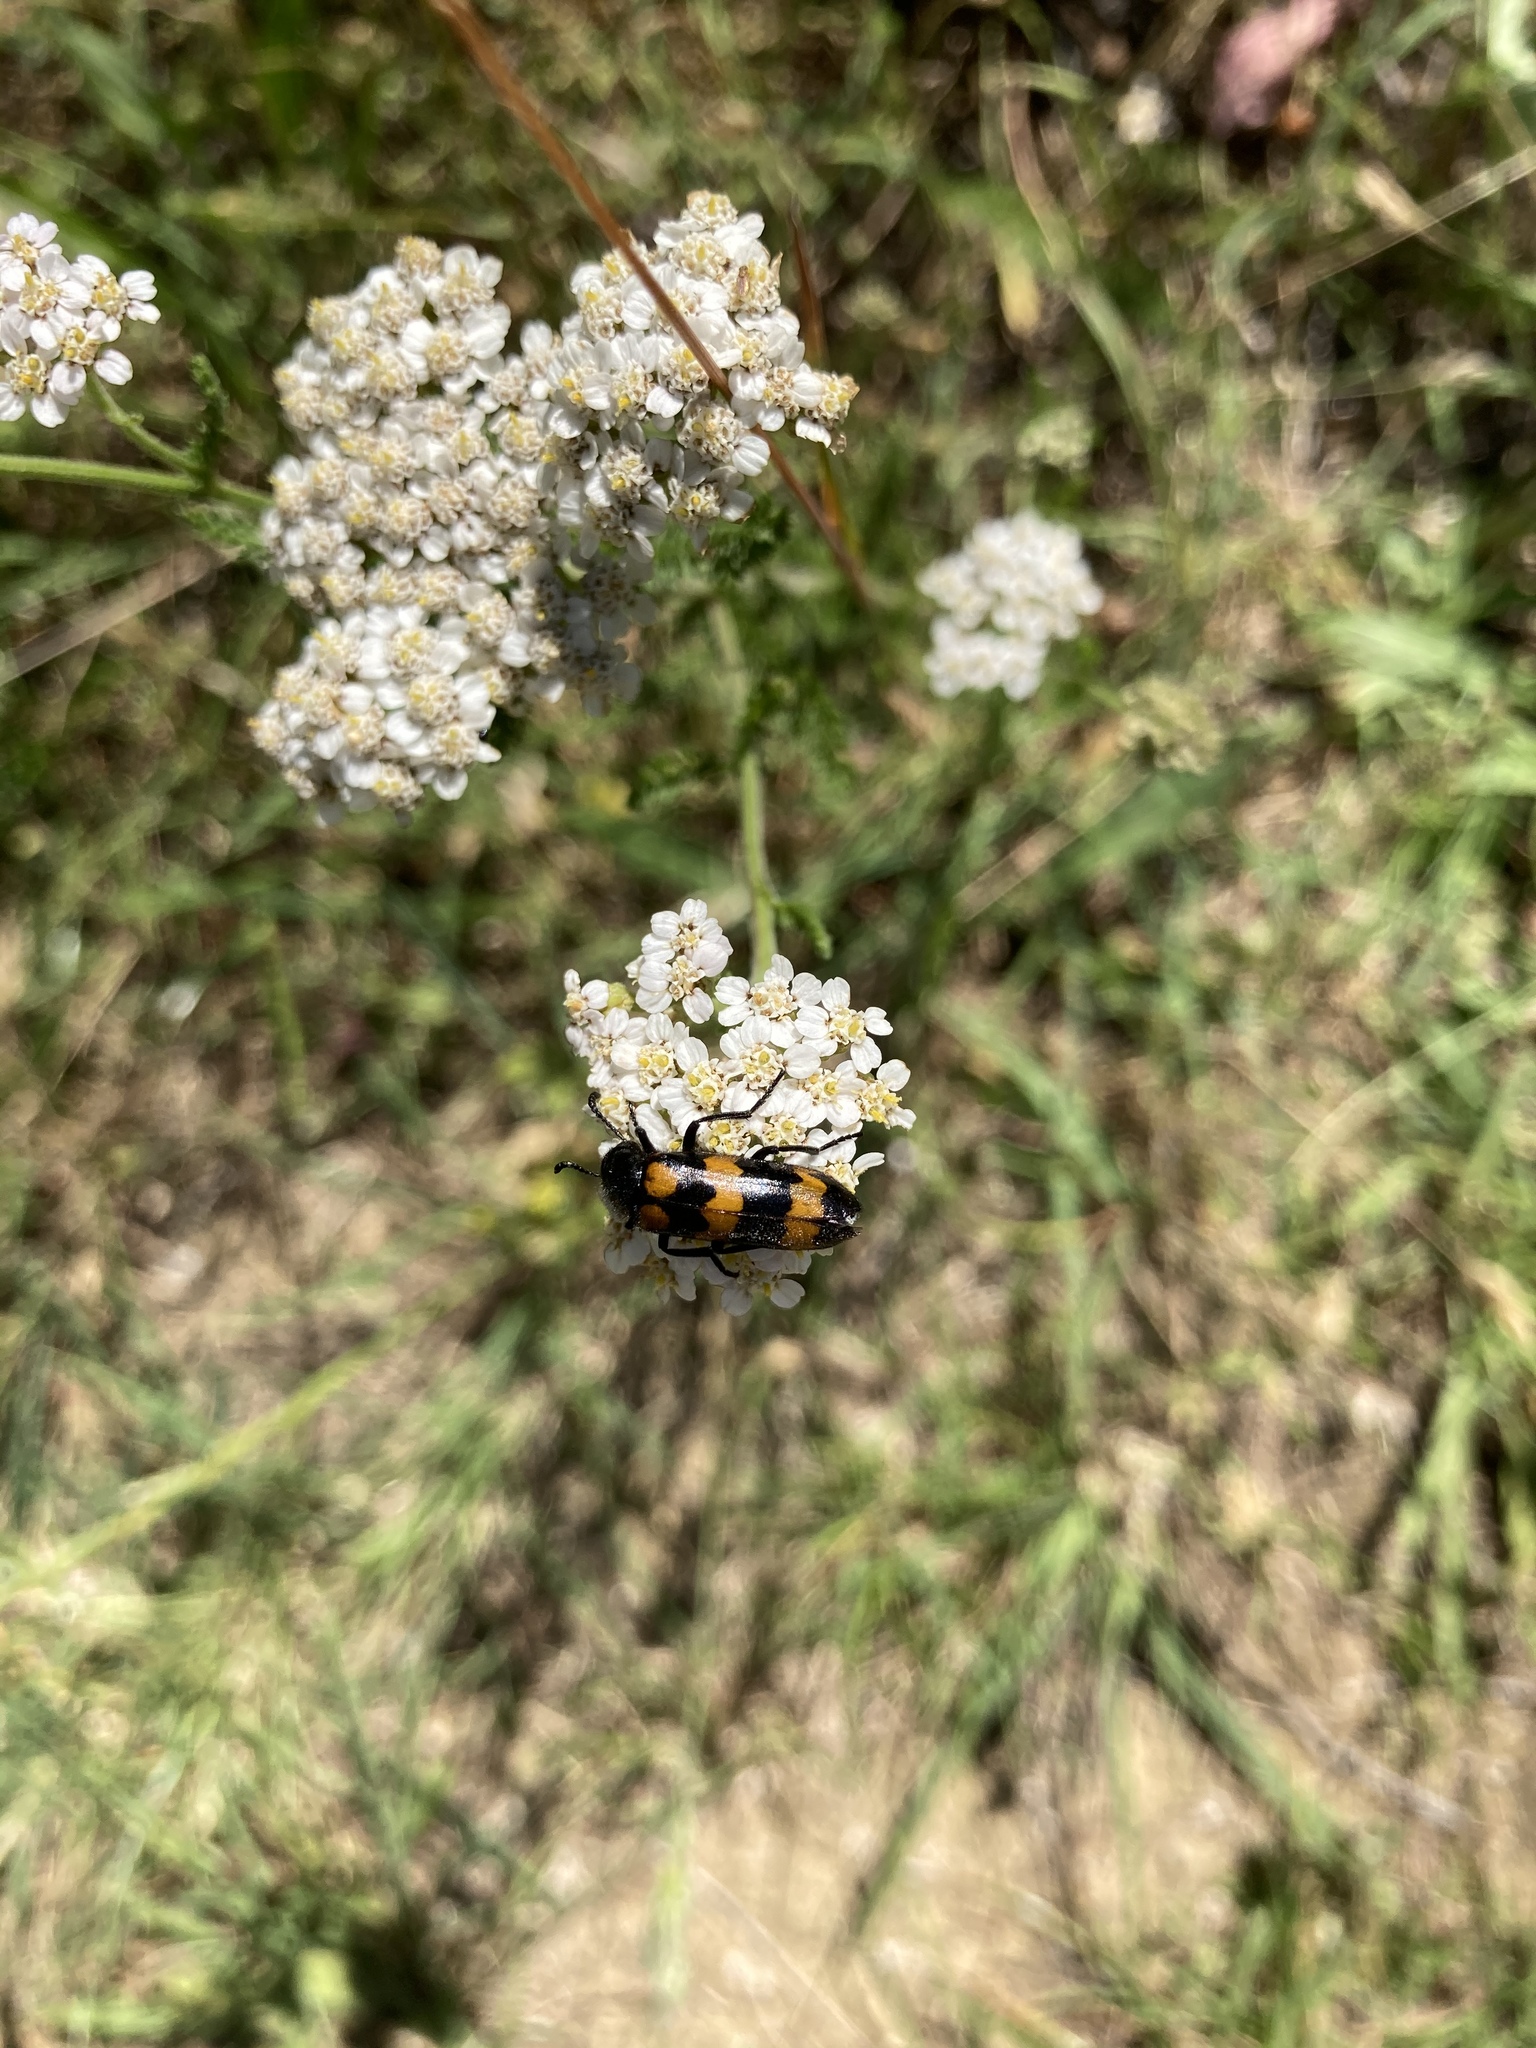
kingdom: Animalia
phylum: Arthropoda
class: Insecta
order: Coleoptera
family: Meloidae
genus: Mylabris
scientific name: Mylabris variabilis
